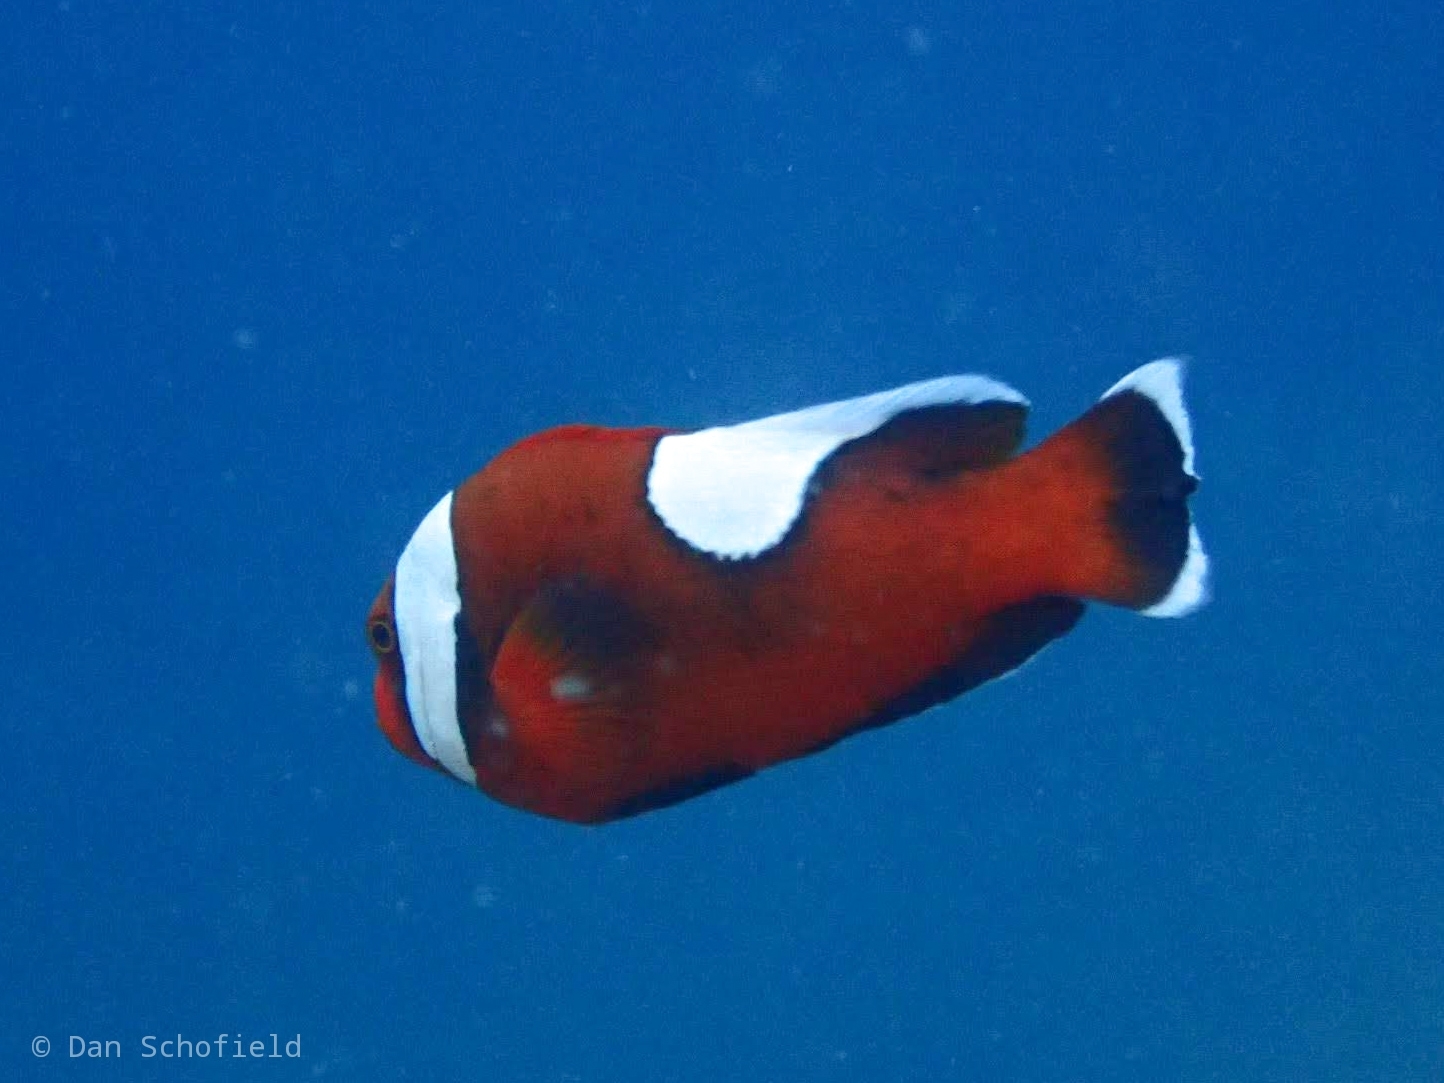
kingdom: Animalia
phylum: Chordata
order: Perciformes
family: Pomacentridae
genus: Amphiprion
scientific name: Amphiprion polymnus
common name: Saddleback anemonefish
